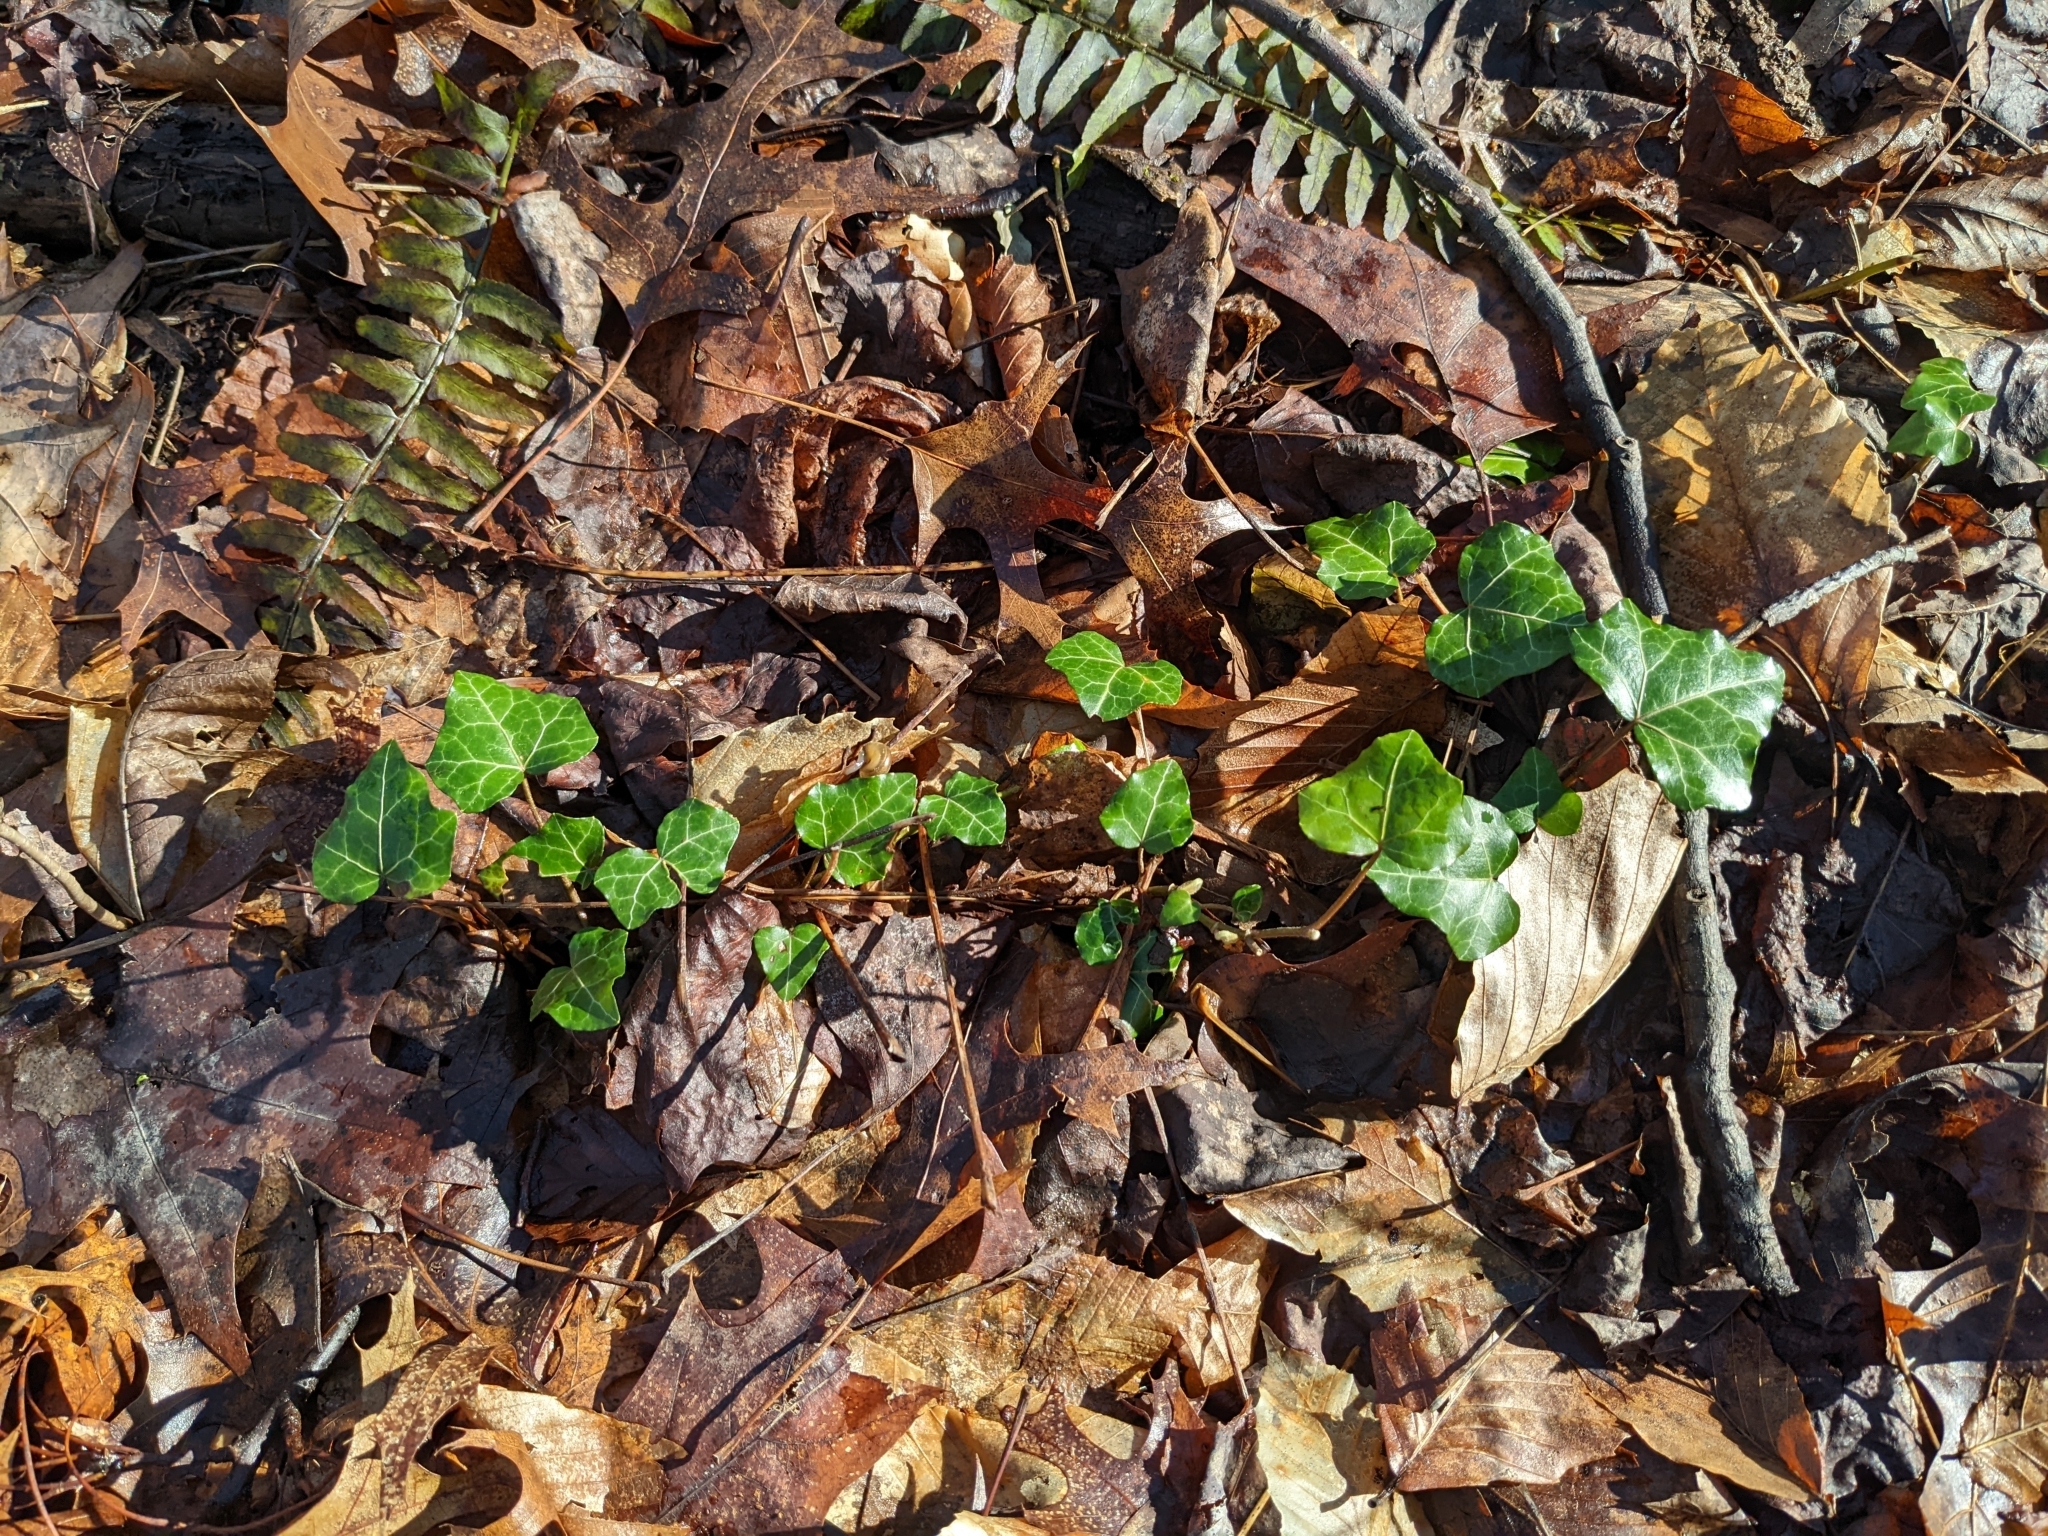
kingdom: Plantae
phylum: Tracheophyta
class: Magnoliopsida
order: Apiales
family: Araliaceae
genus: Hedera
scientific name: Hedera helix
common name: Ivy
